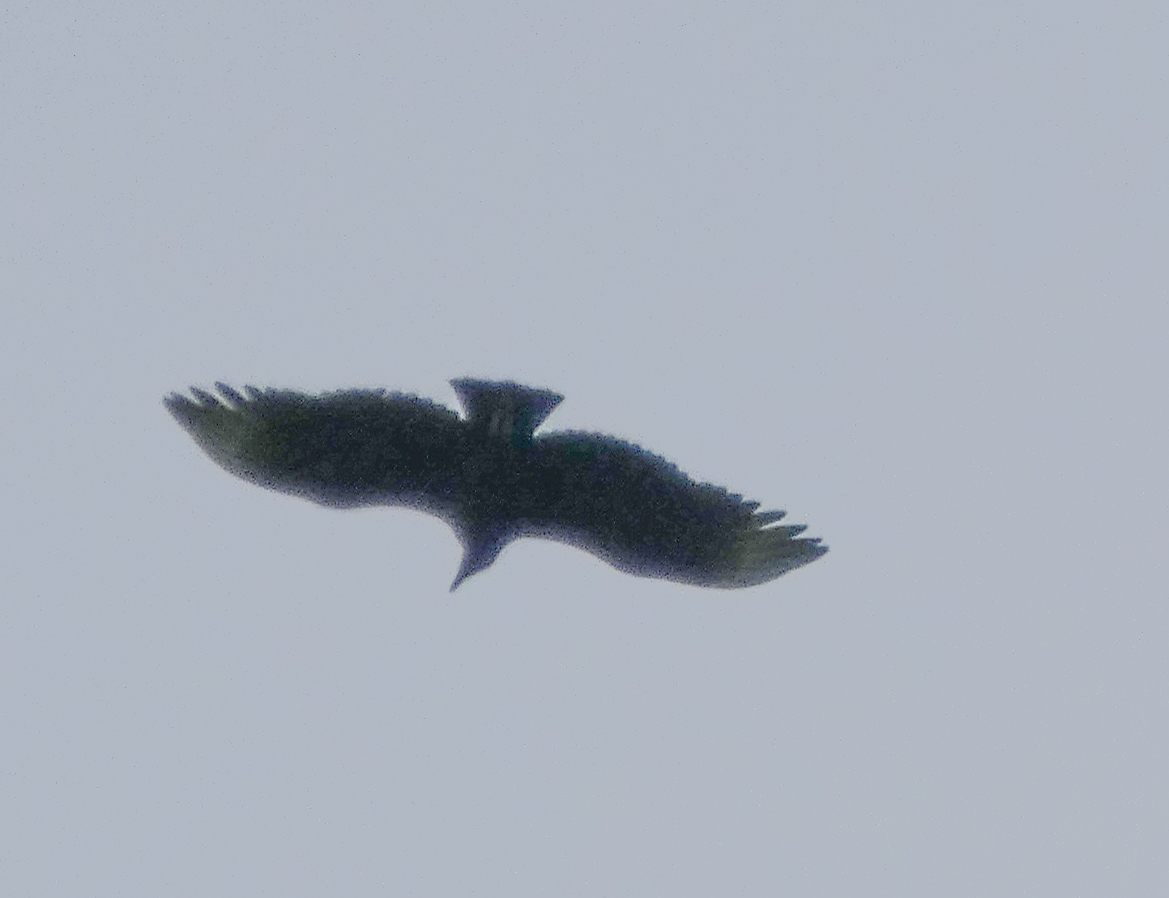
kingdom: Animalia
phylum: Chordata
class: Aves
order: Accipitriformes
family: Cathartidae
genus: Coragyps
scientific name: Coragyps atratus
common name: Black vulture
